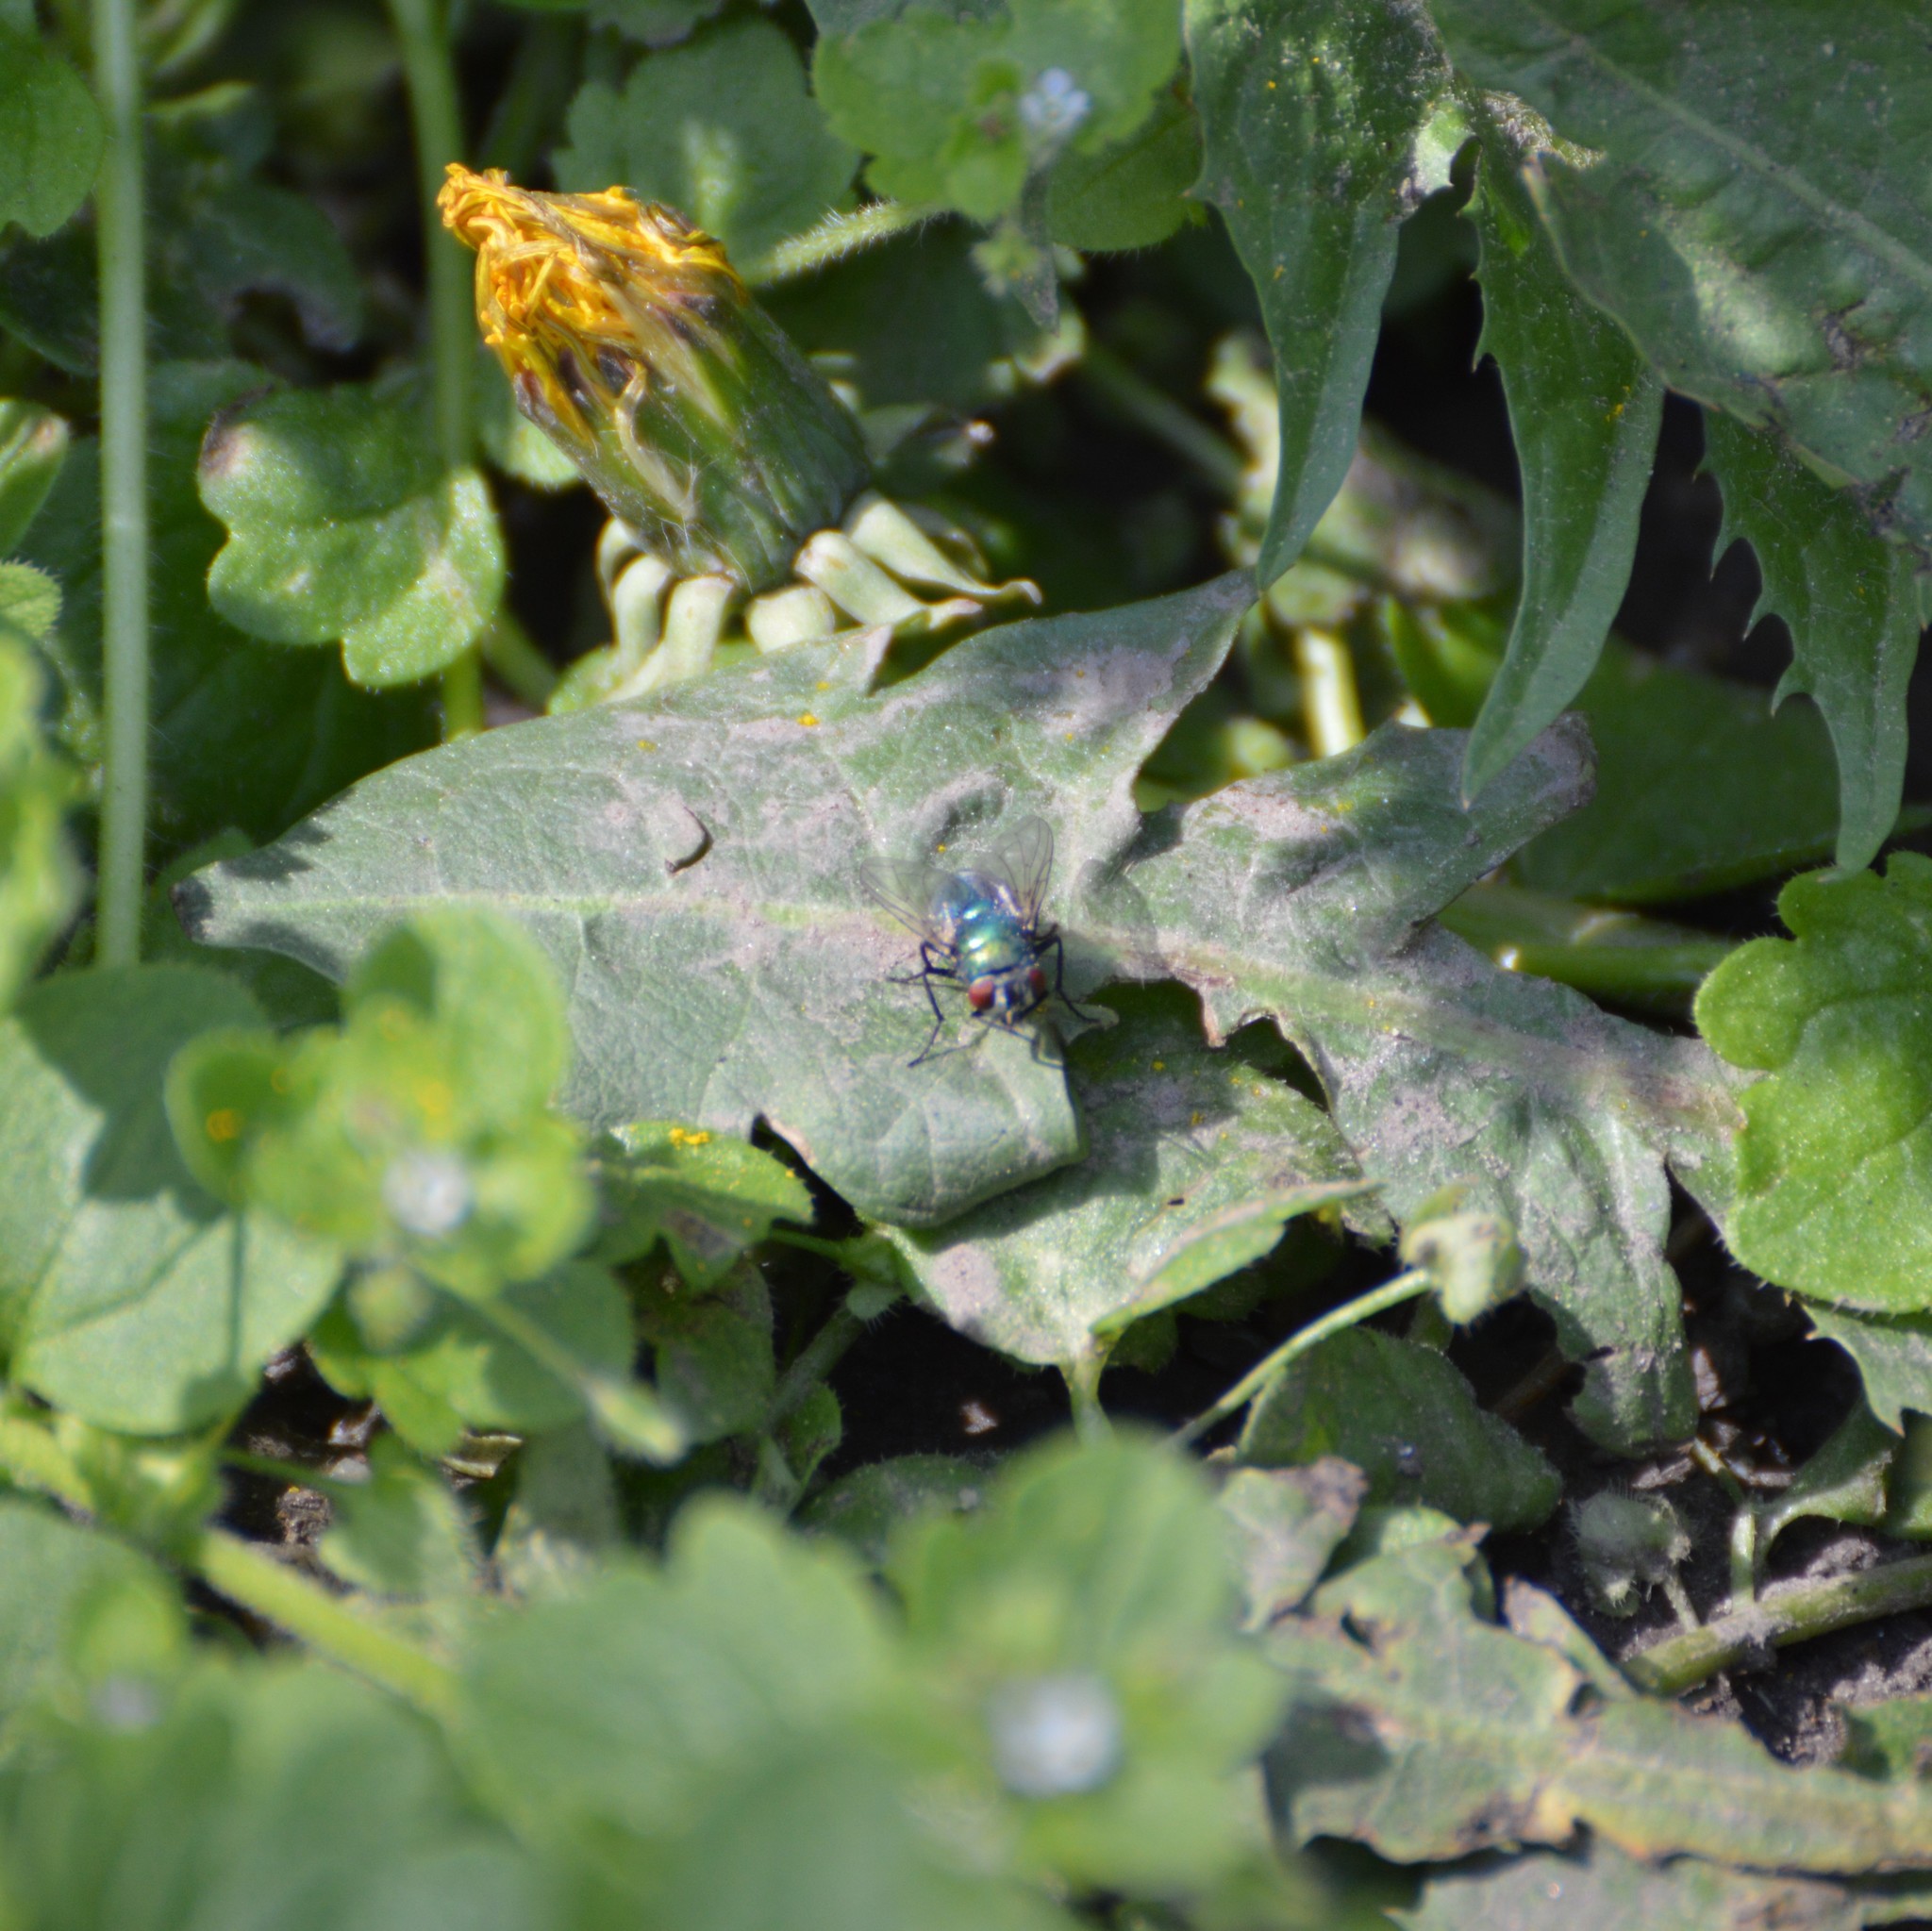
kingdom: Animalia
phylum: Arthropoda
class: Insecta
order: Diptera
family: Calliphoridae
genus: Lucilia
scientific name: Lucilia
